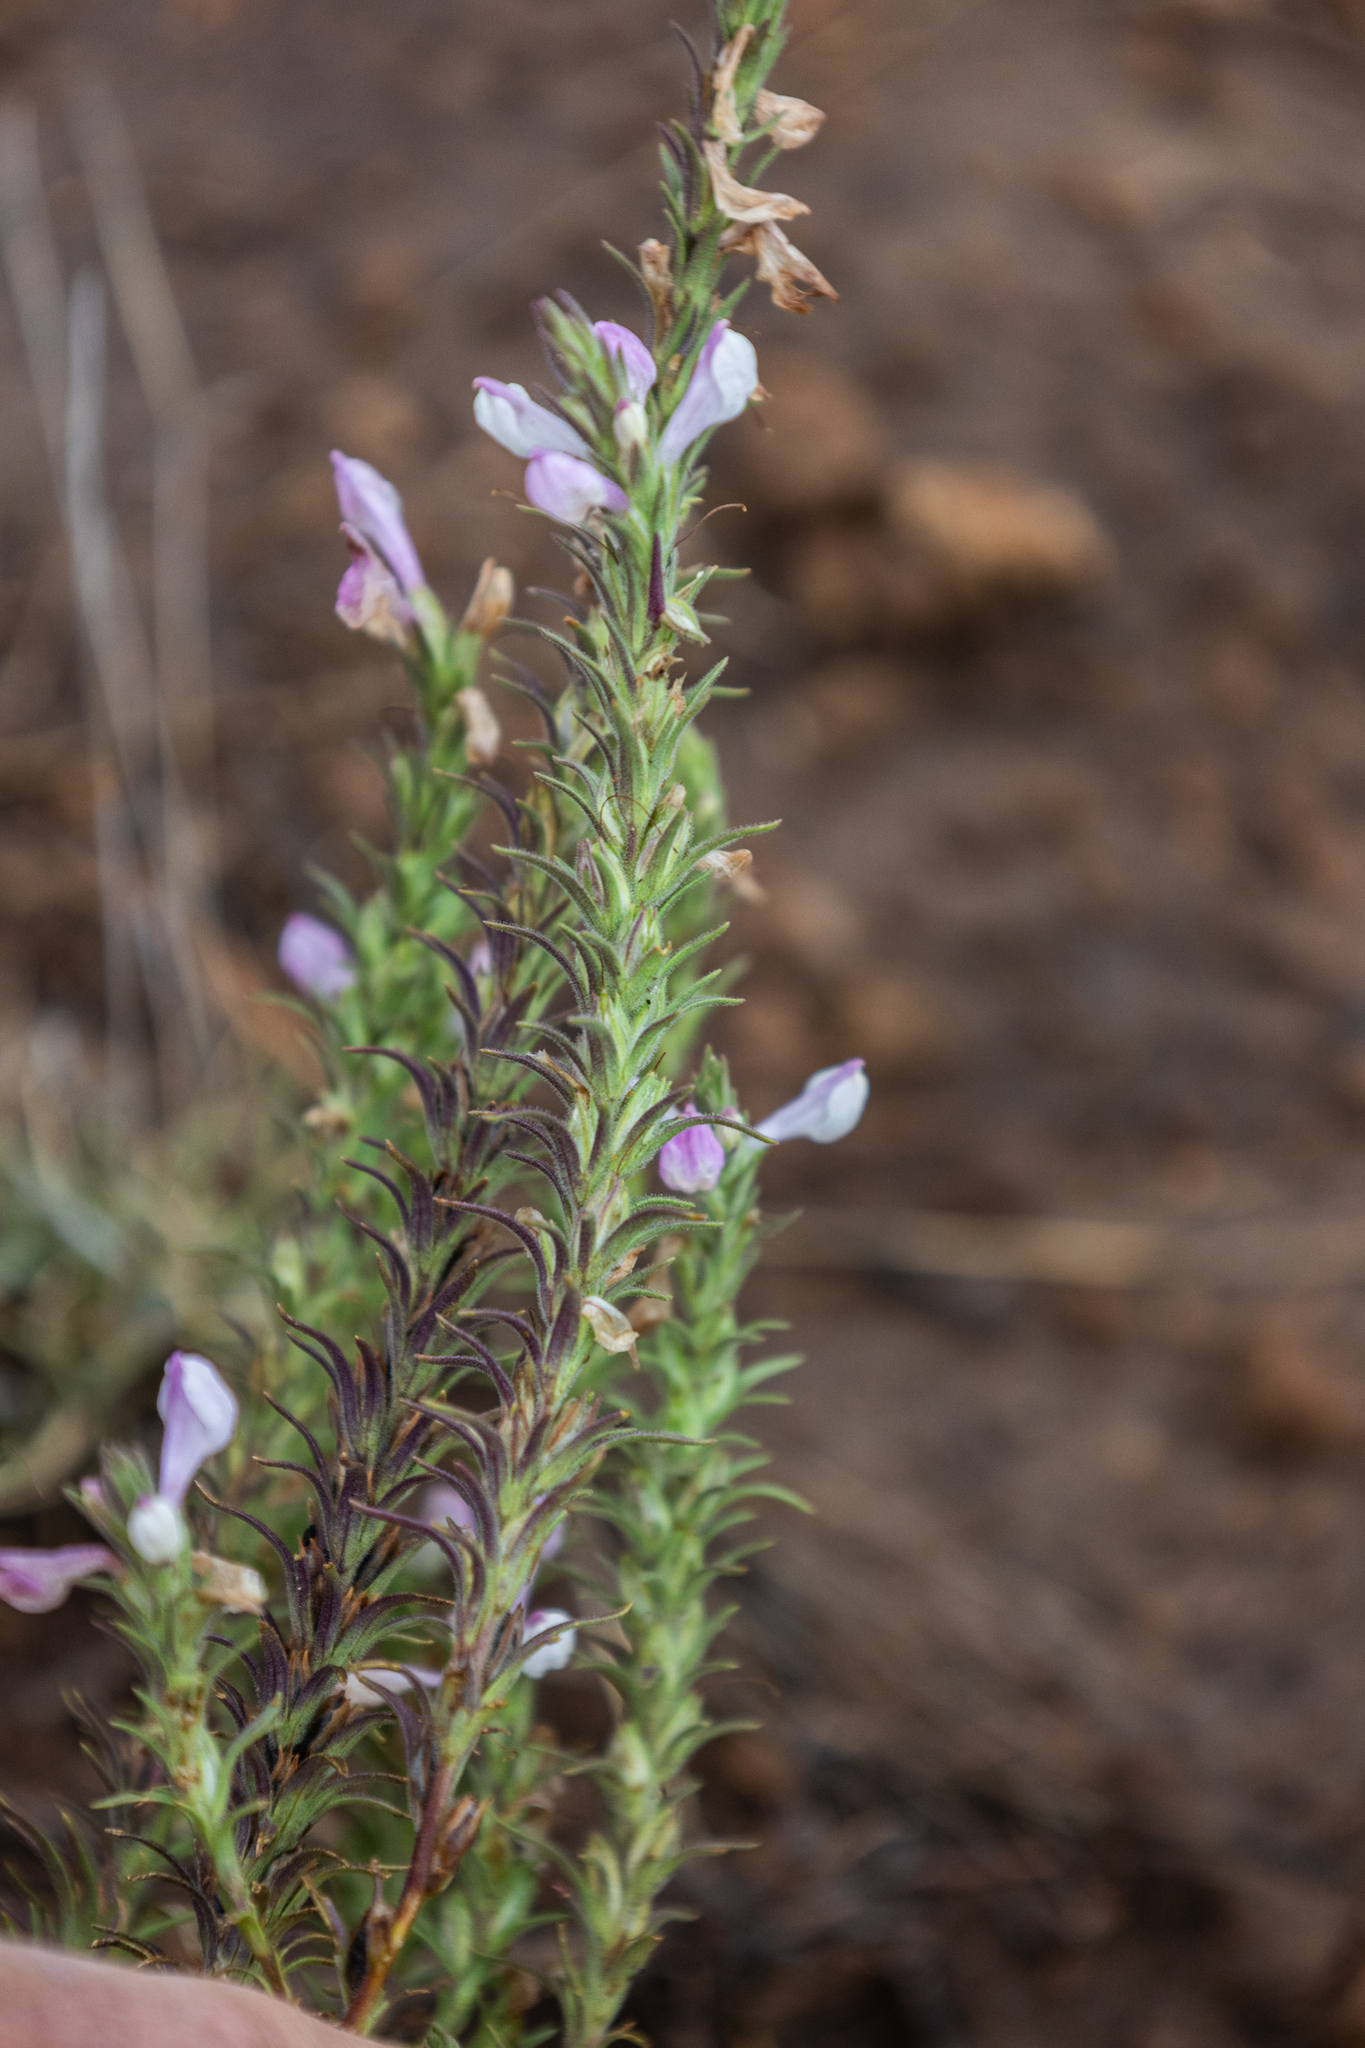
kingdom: Plantae
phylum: Tracheophyta
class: Magnoliopsida
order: Lamiales
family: Orobanchaceae
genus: Orthocarpus
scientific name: Orthocarpus purpureoalbus
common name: Violet owl-clover
